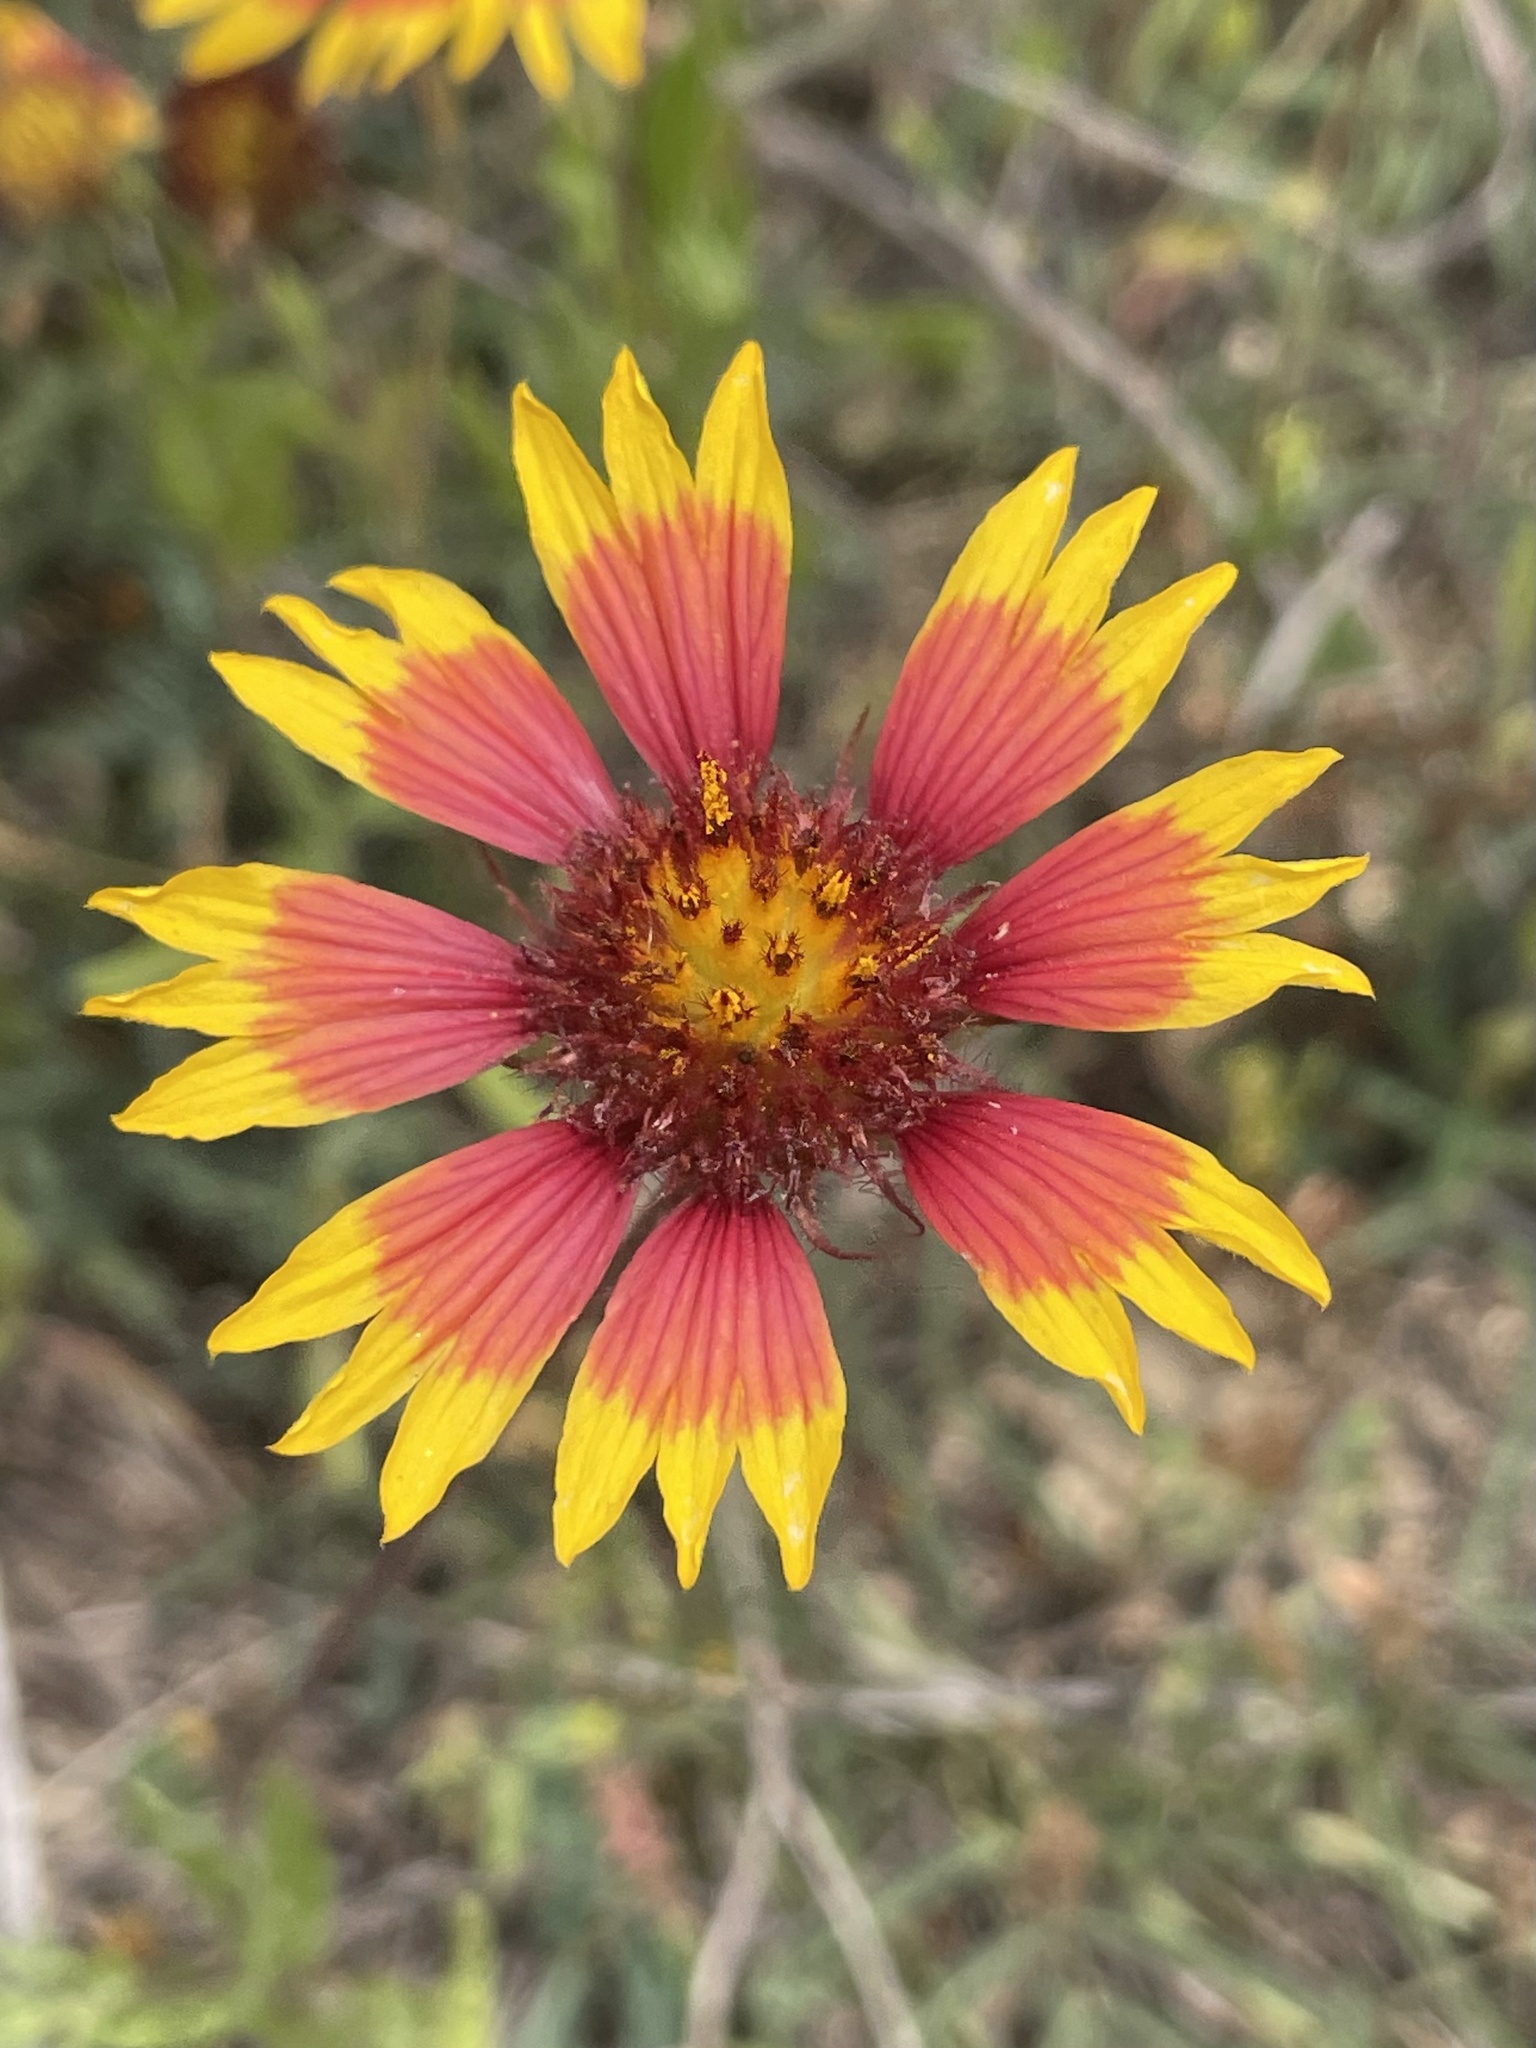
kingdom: Plantae
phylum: Tracheophyta
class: Magnoliopsida
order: Asterales
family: Asteraceae
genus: Gaillardia
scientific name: Gaillardia pulchella
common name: Firewheel
